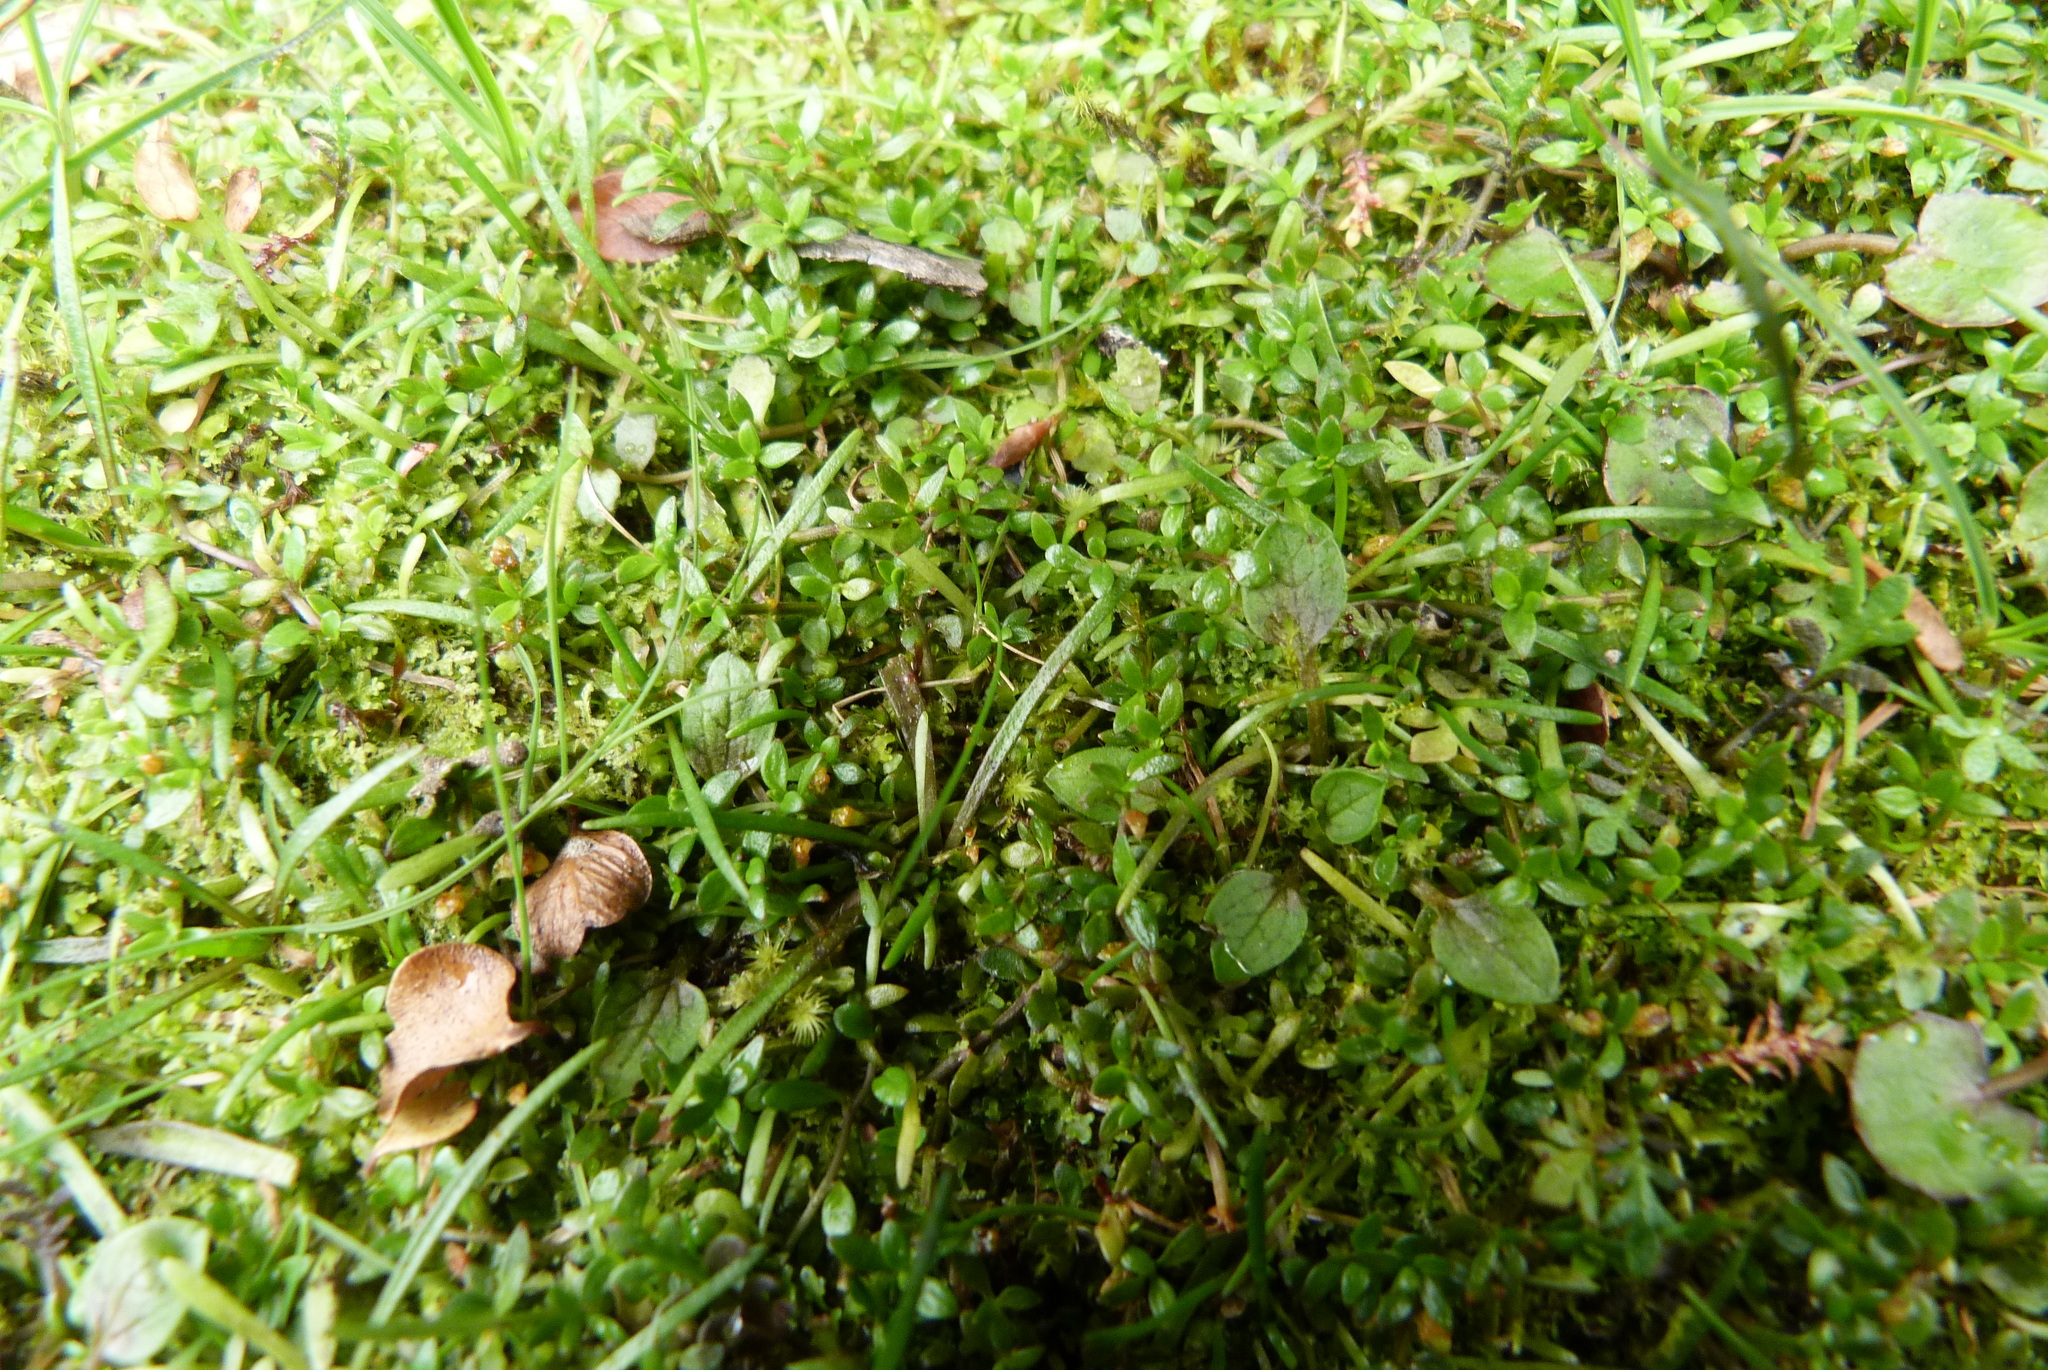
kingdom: Plantae
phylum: Tracheophyta
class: Magnoliopsida
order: Lamiales
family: Tetrachondraceae
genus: Tetrachondra
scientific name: Tetrachondra hamiltonii
